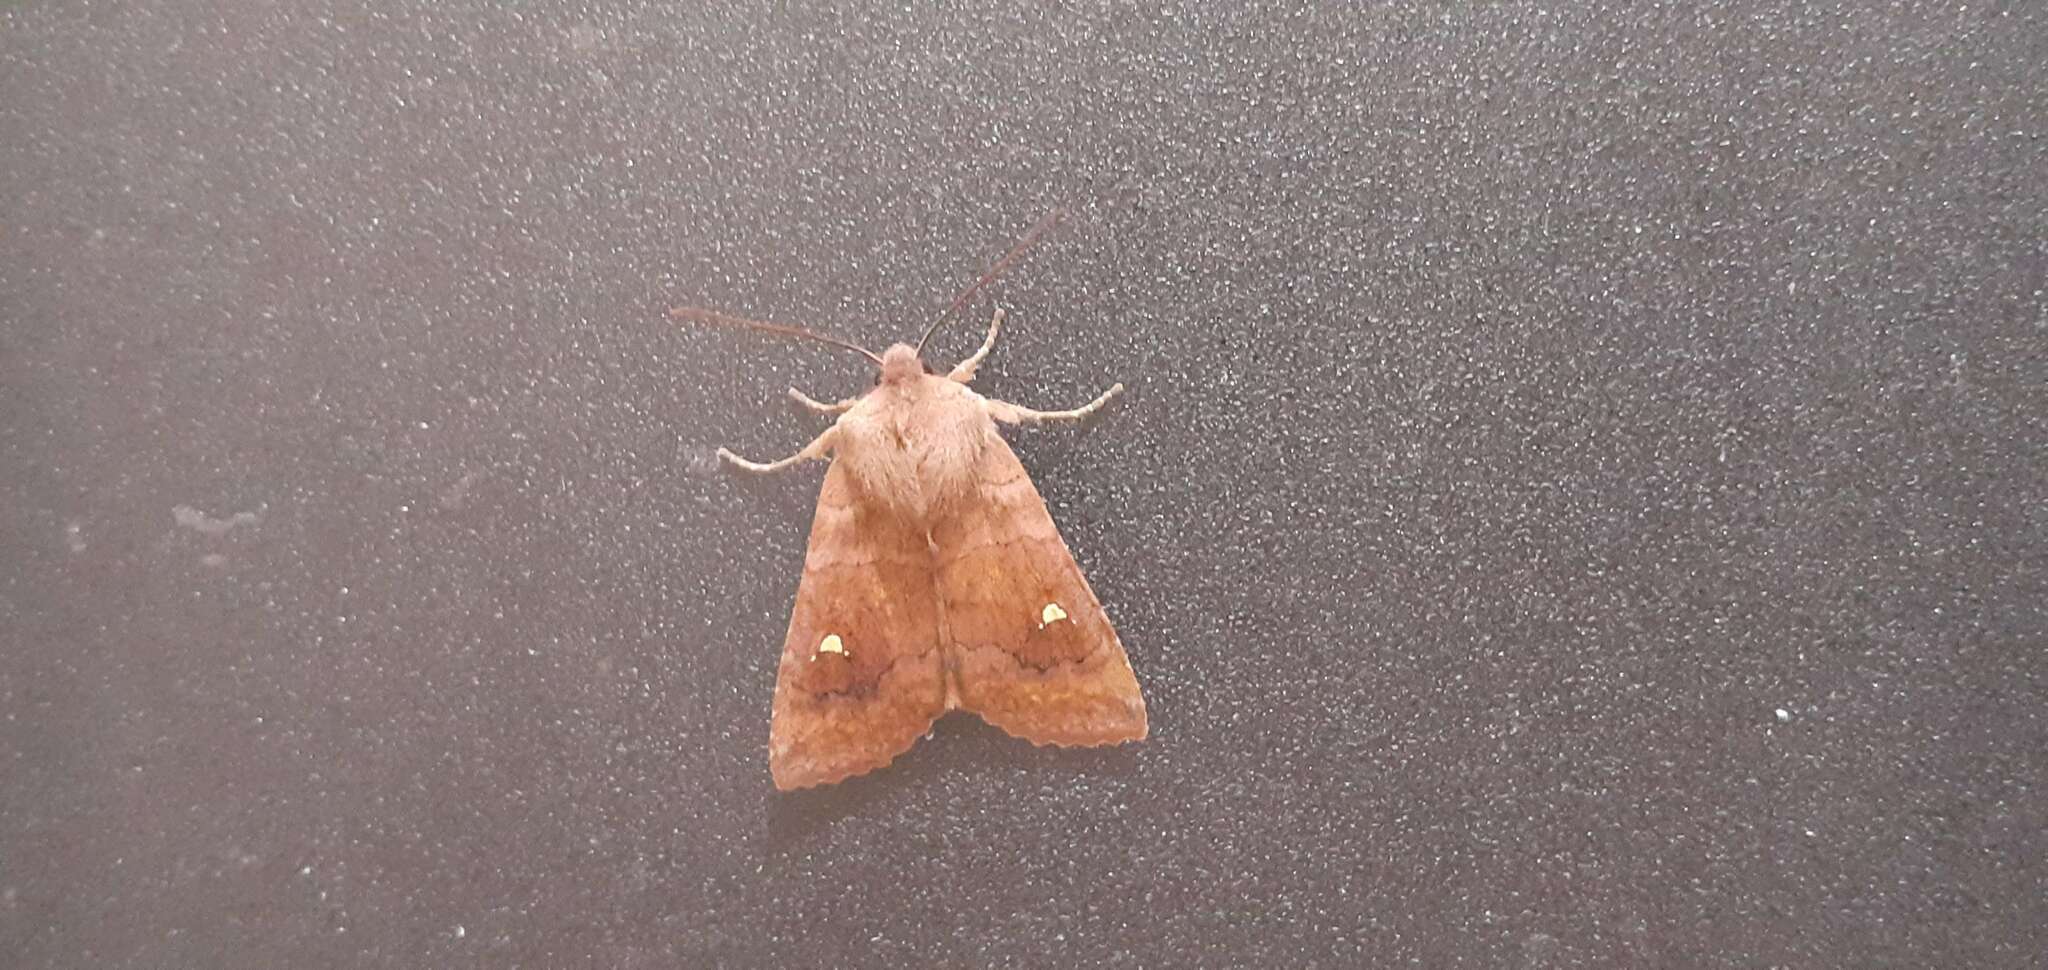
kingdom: Animalia
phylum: Arthropoda
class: Insecta
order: Lepidoptera
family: Noctuidae
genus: Eupsilia
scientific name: Eupsilia transversa
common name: Satellite
